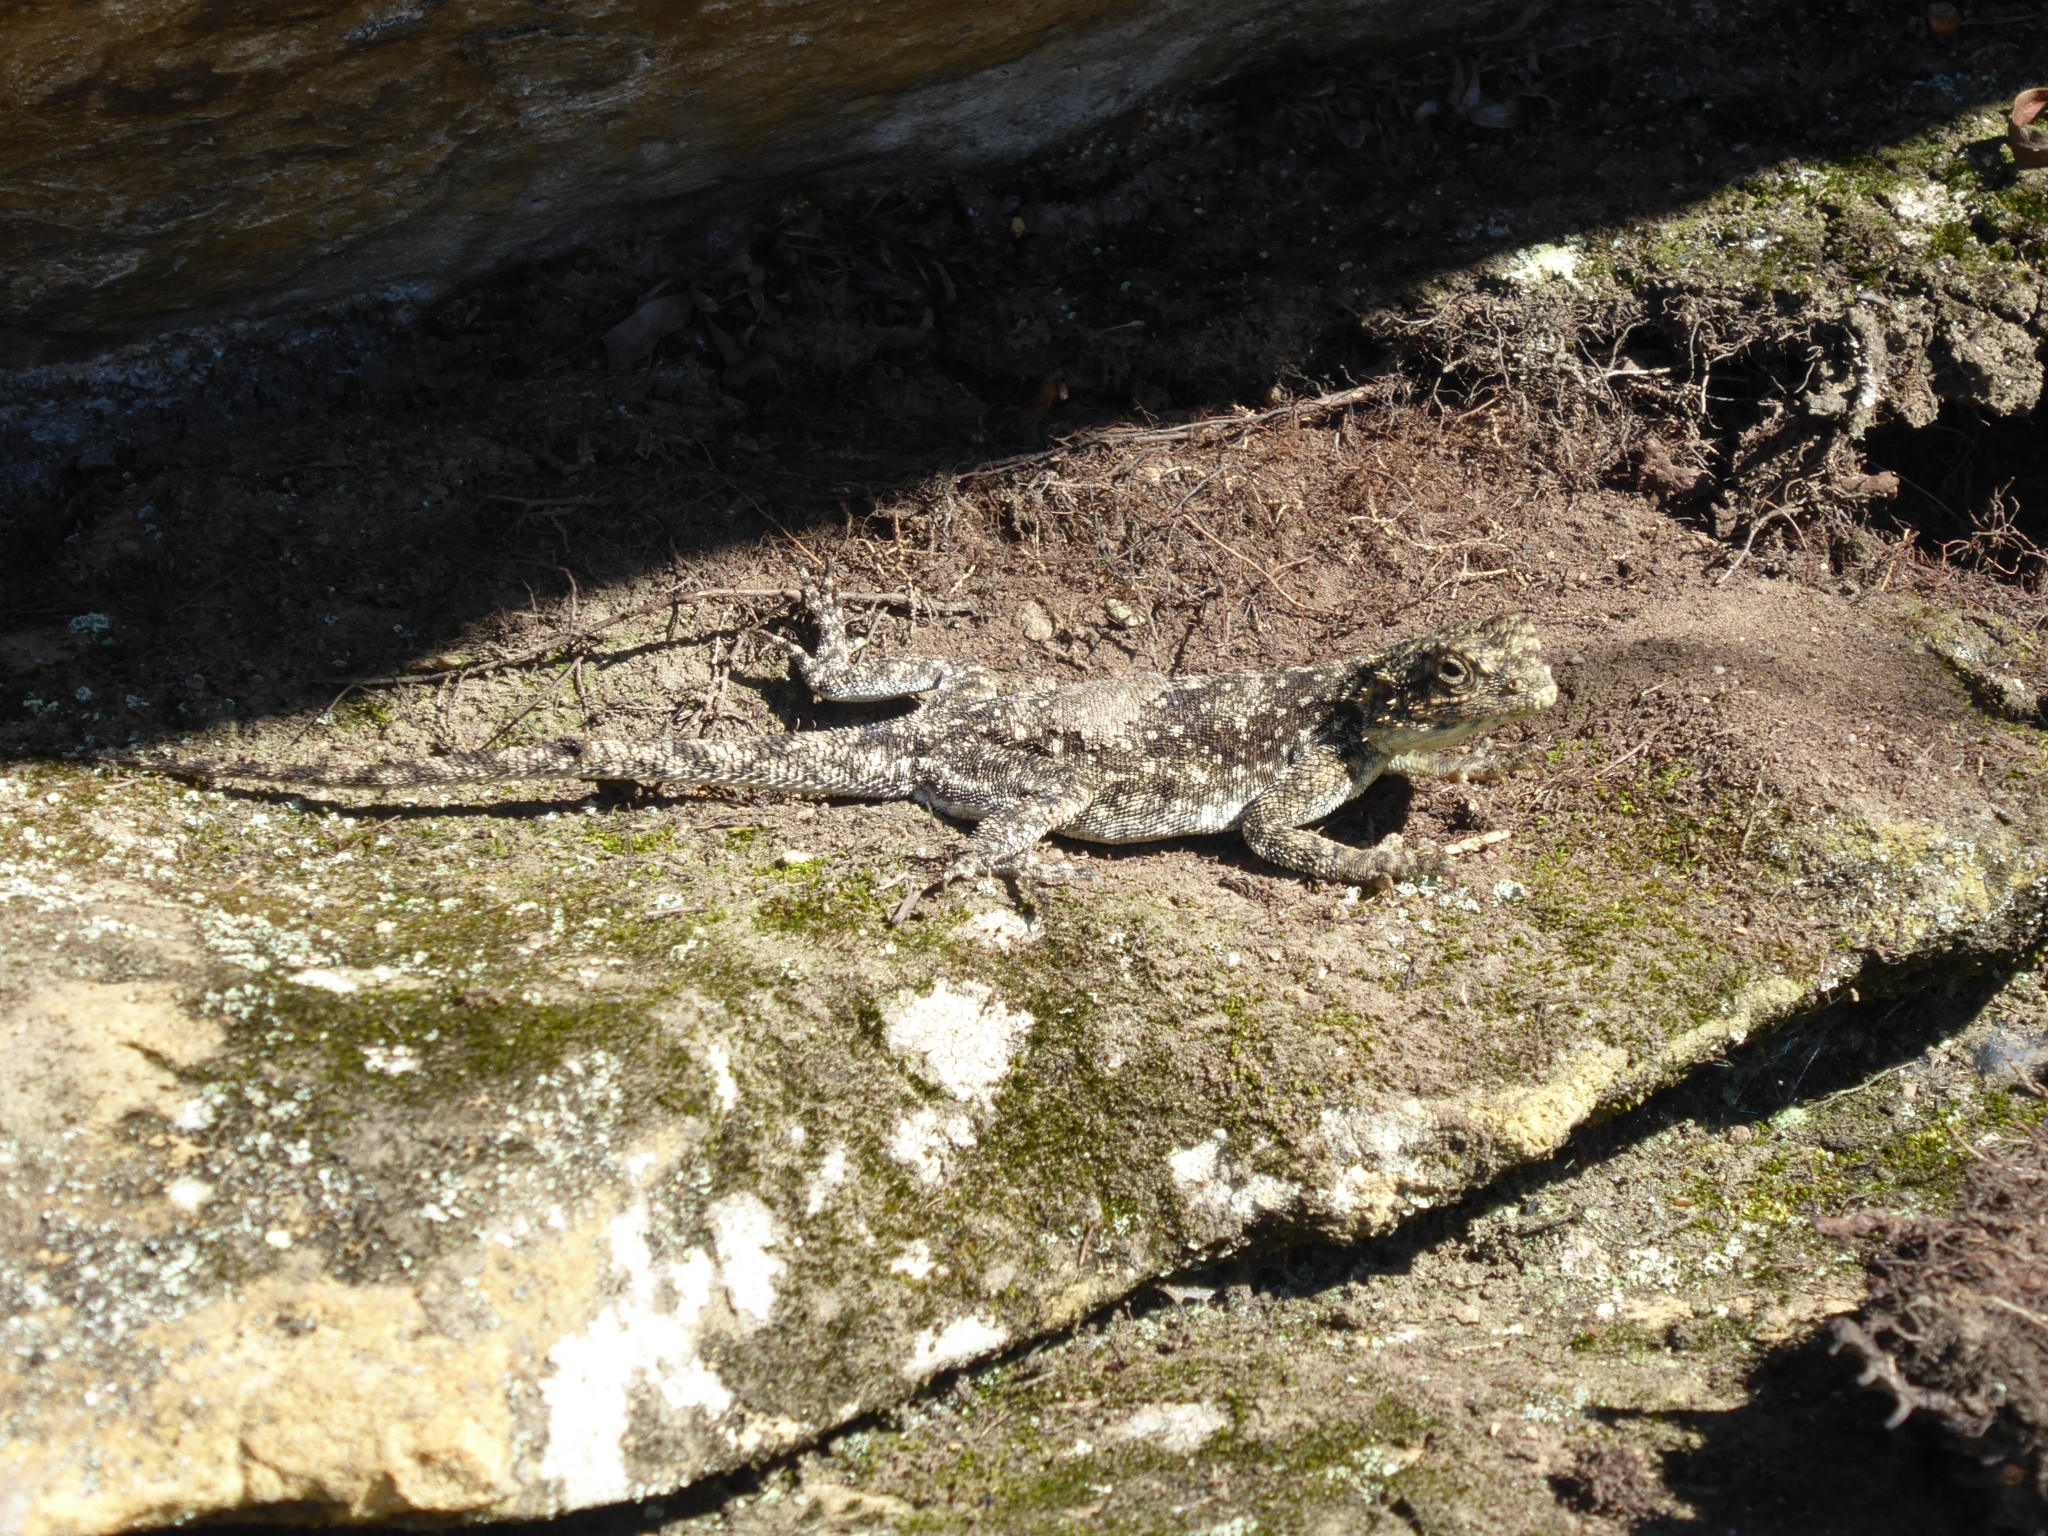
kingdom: Animalia
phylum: Chordata
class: Squamata
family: Agamidae
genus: Agama
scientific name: Agama atra
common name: Southern african rock agama
